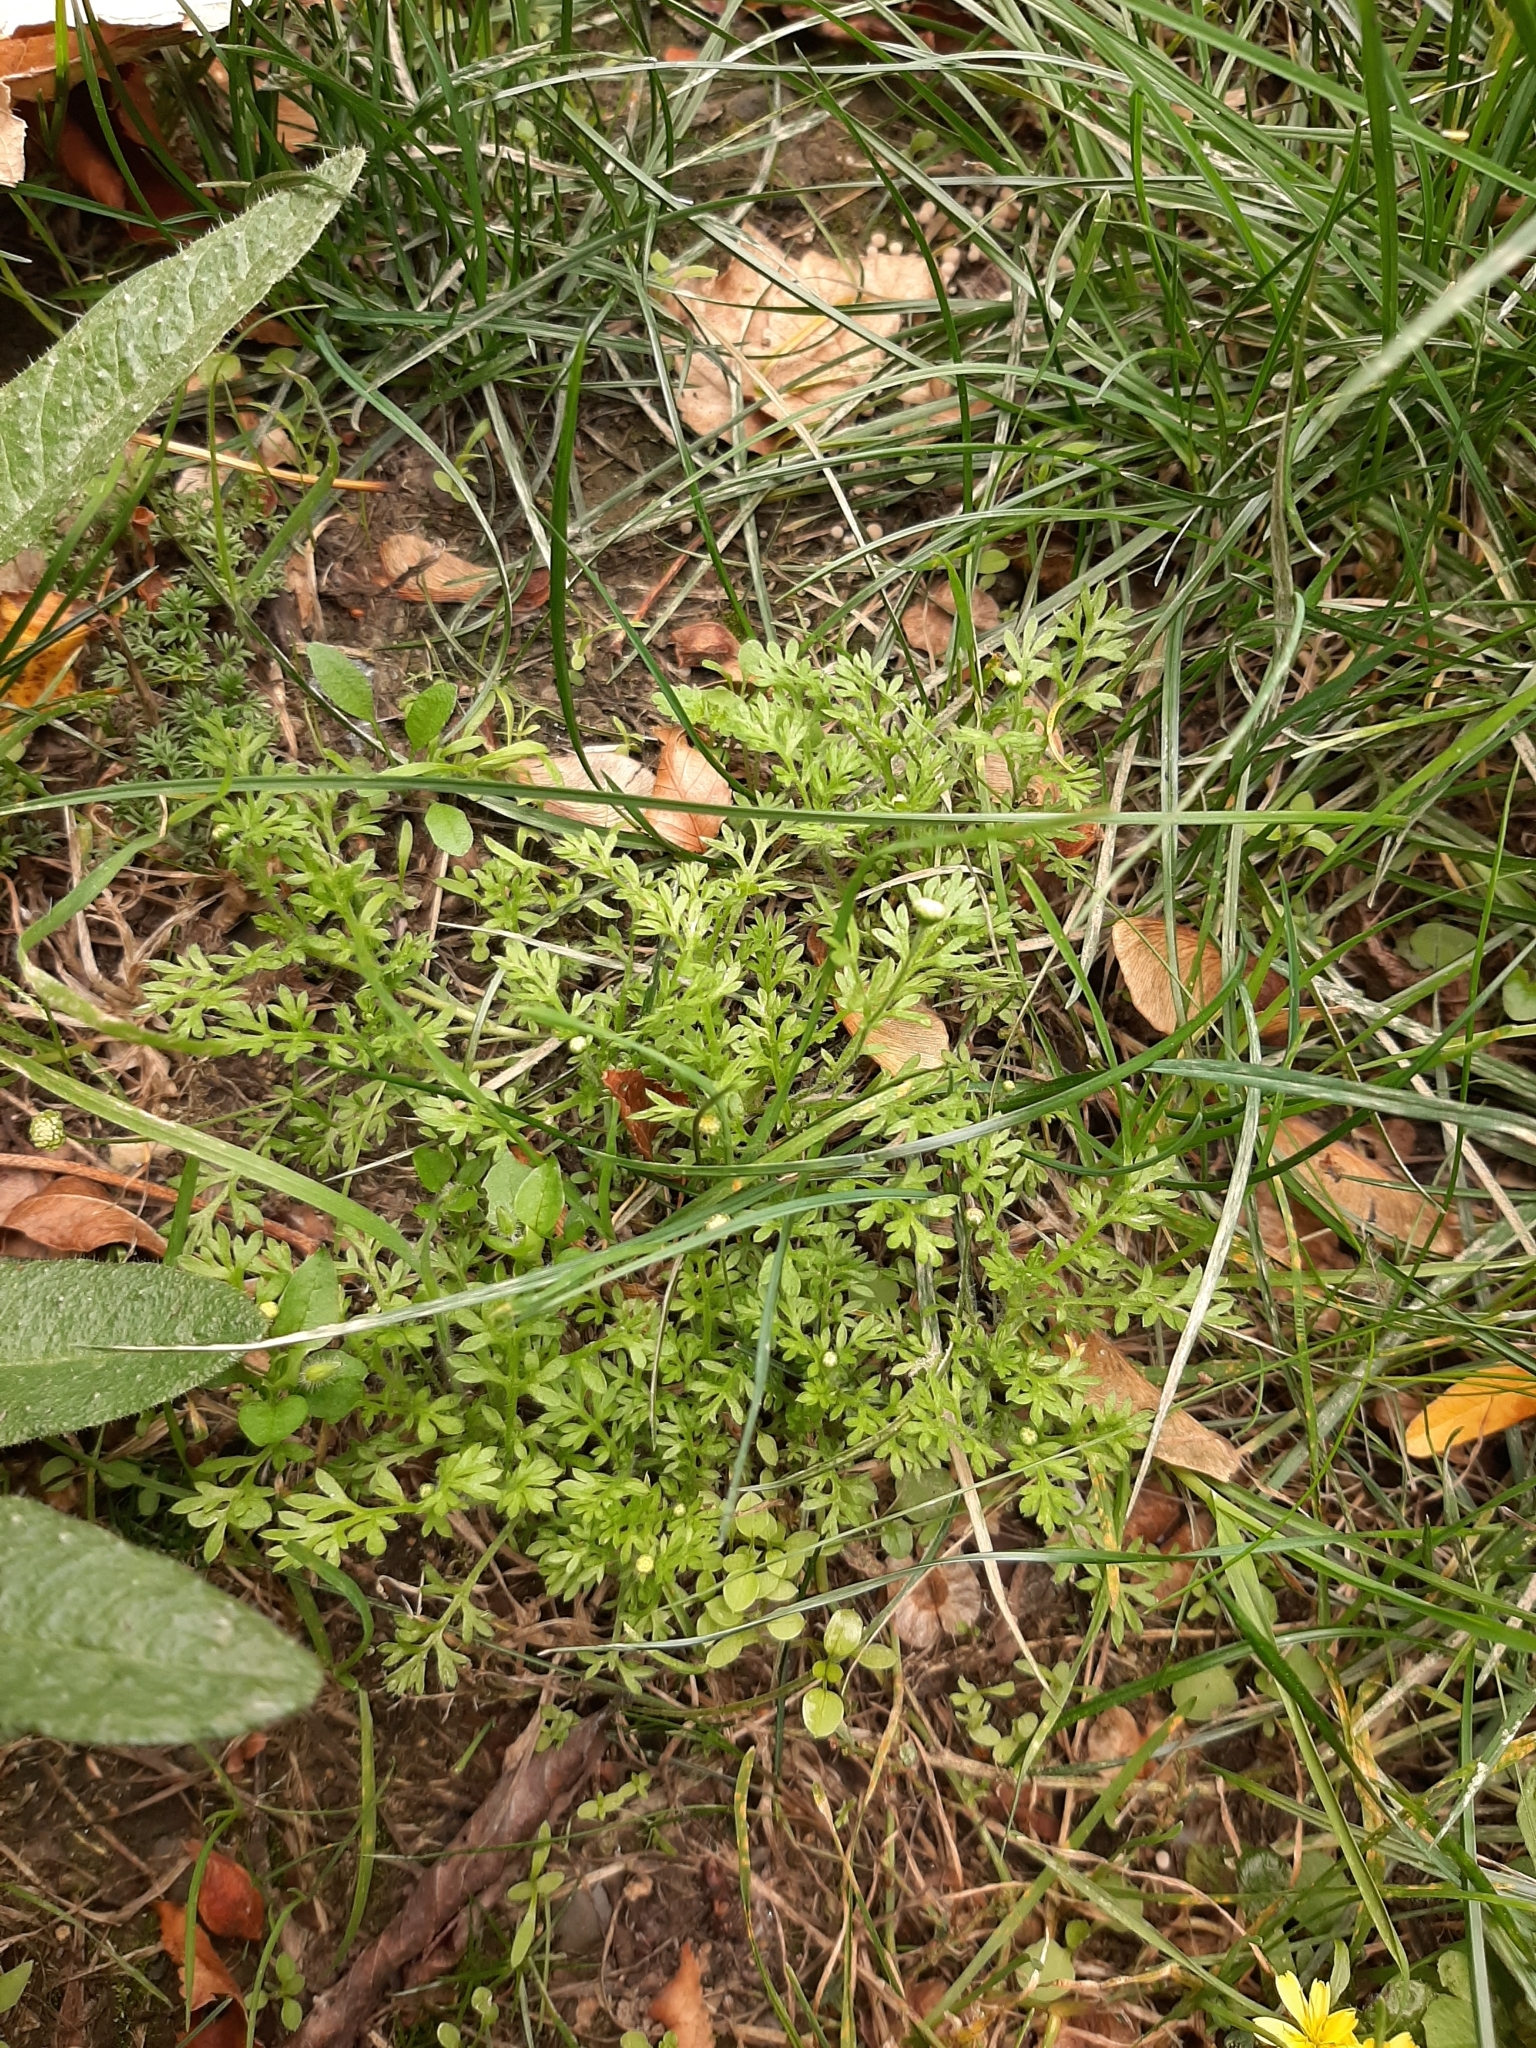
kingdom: Plantae
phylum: Tracheophyta
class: Magnoliopsida
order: Asterales
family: Asteraceae
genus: Cotula
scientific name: Cotula australis
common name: Australian waterbuttons
